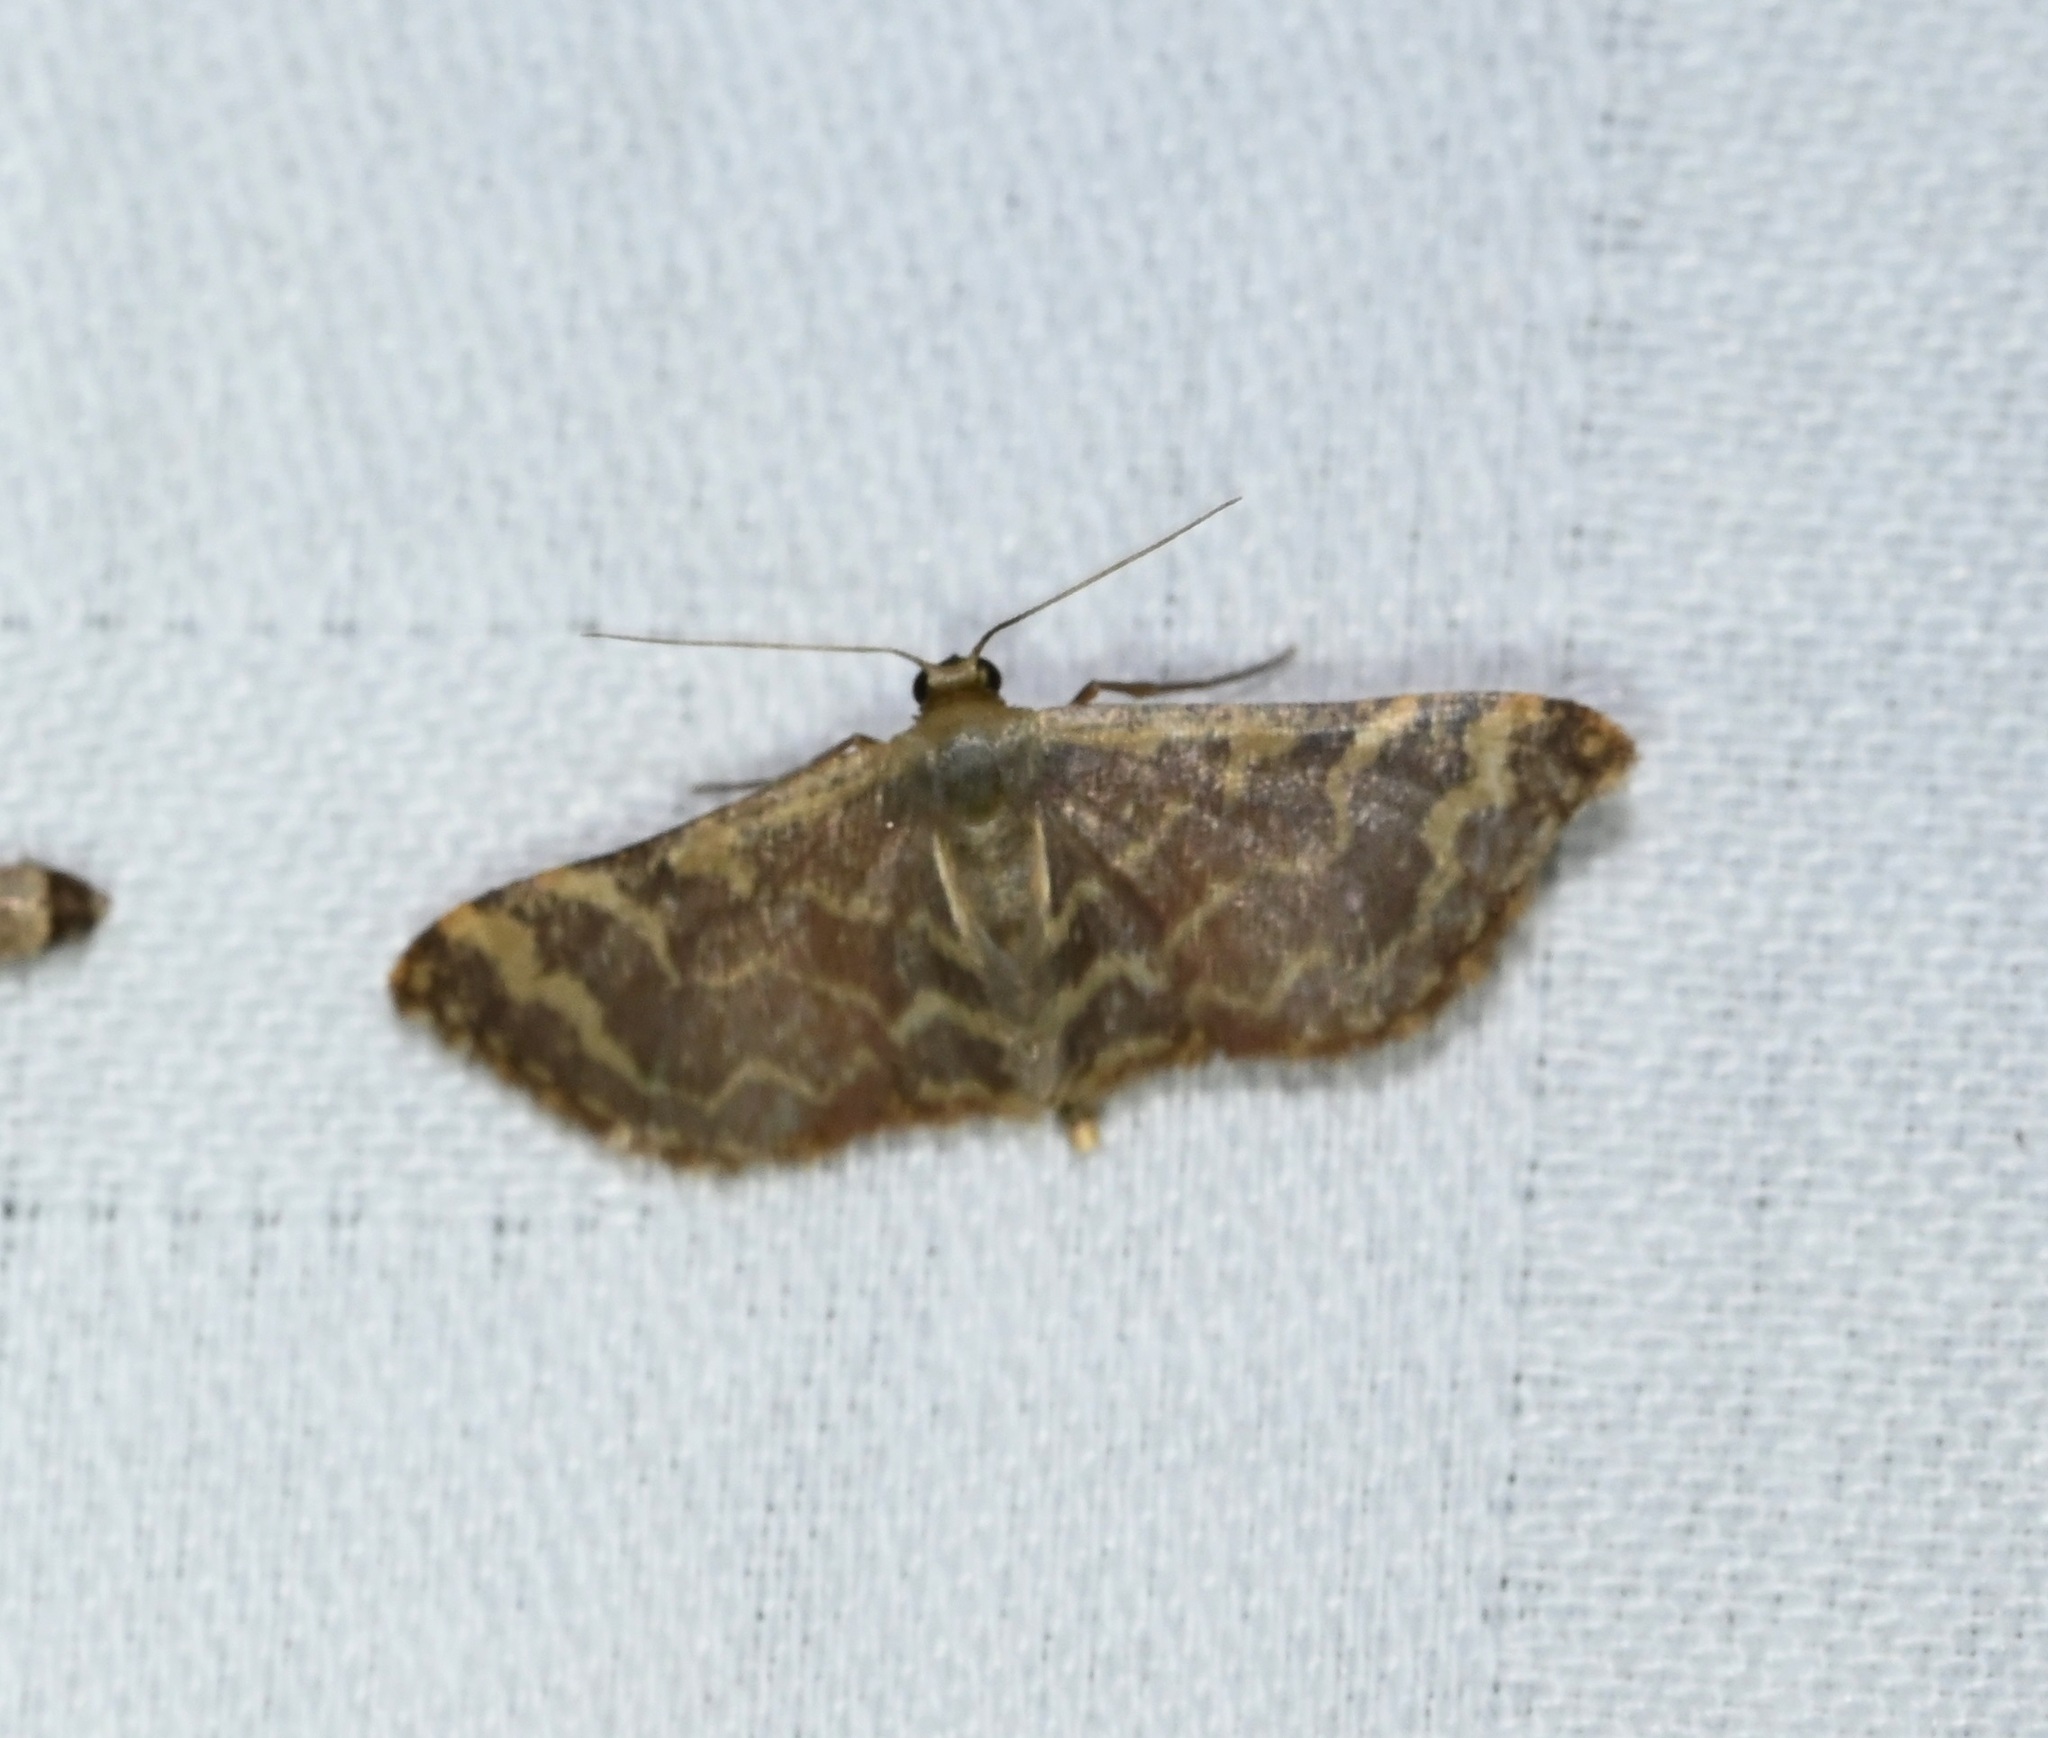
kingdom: Animalia
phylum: Arthropoda
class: Insecta
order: Lepidoptera
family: Geometridae
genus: Lophophleps
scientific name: Lophophleps purpurea
